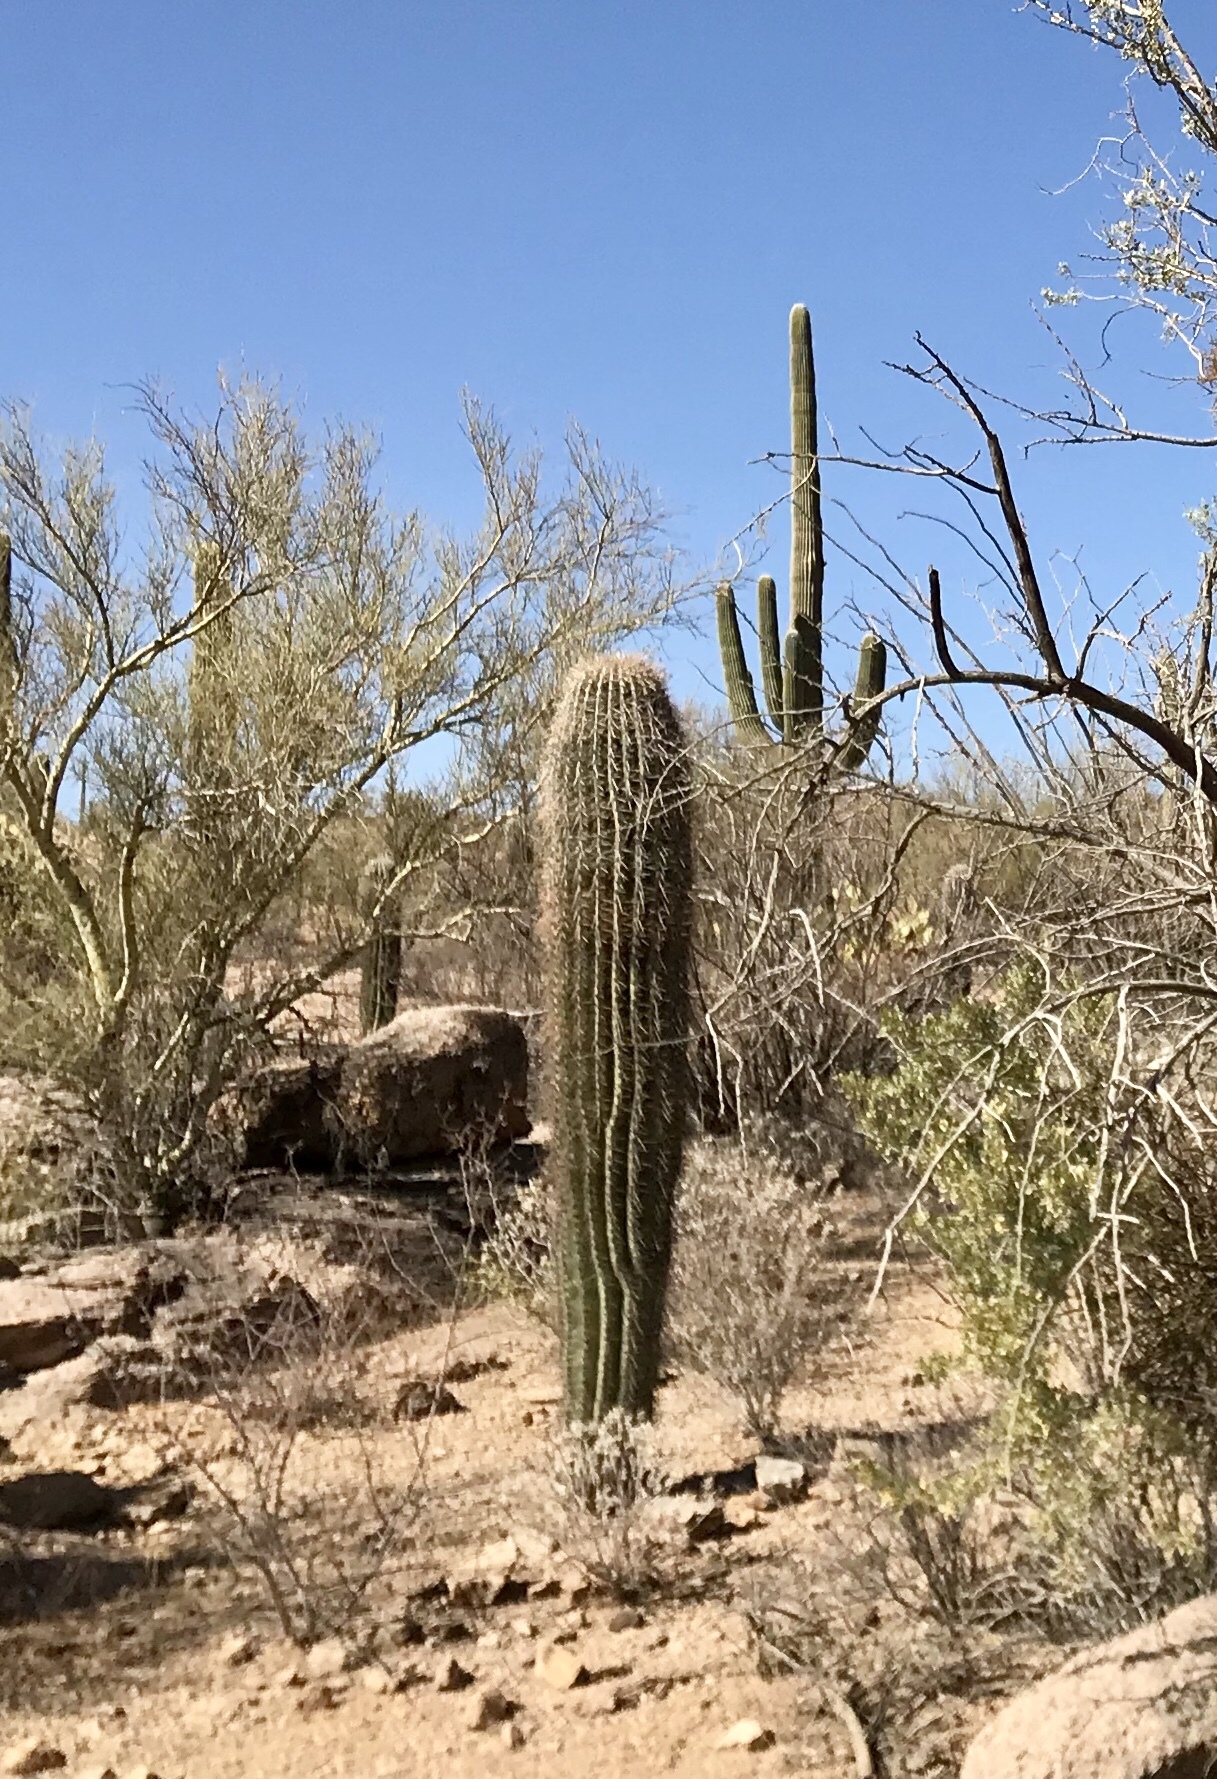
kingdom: Plantae
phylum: Tracheophyta
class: Magnoliopsida
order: Caryophyllales
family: Cactaceae
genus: Carnegiea
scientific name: Carnegiea gigantea
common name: Saguaro
